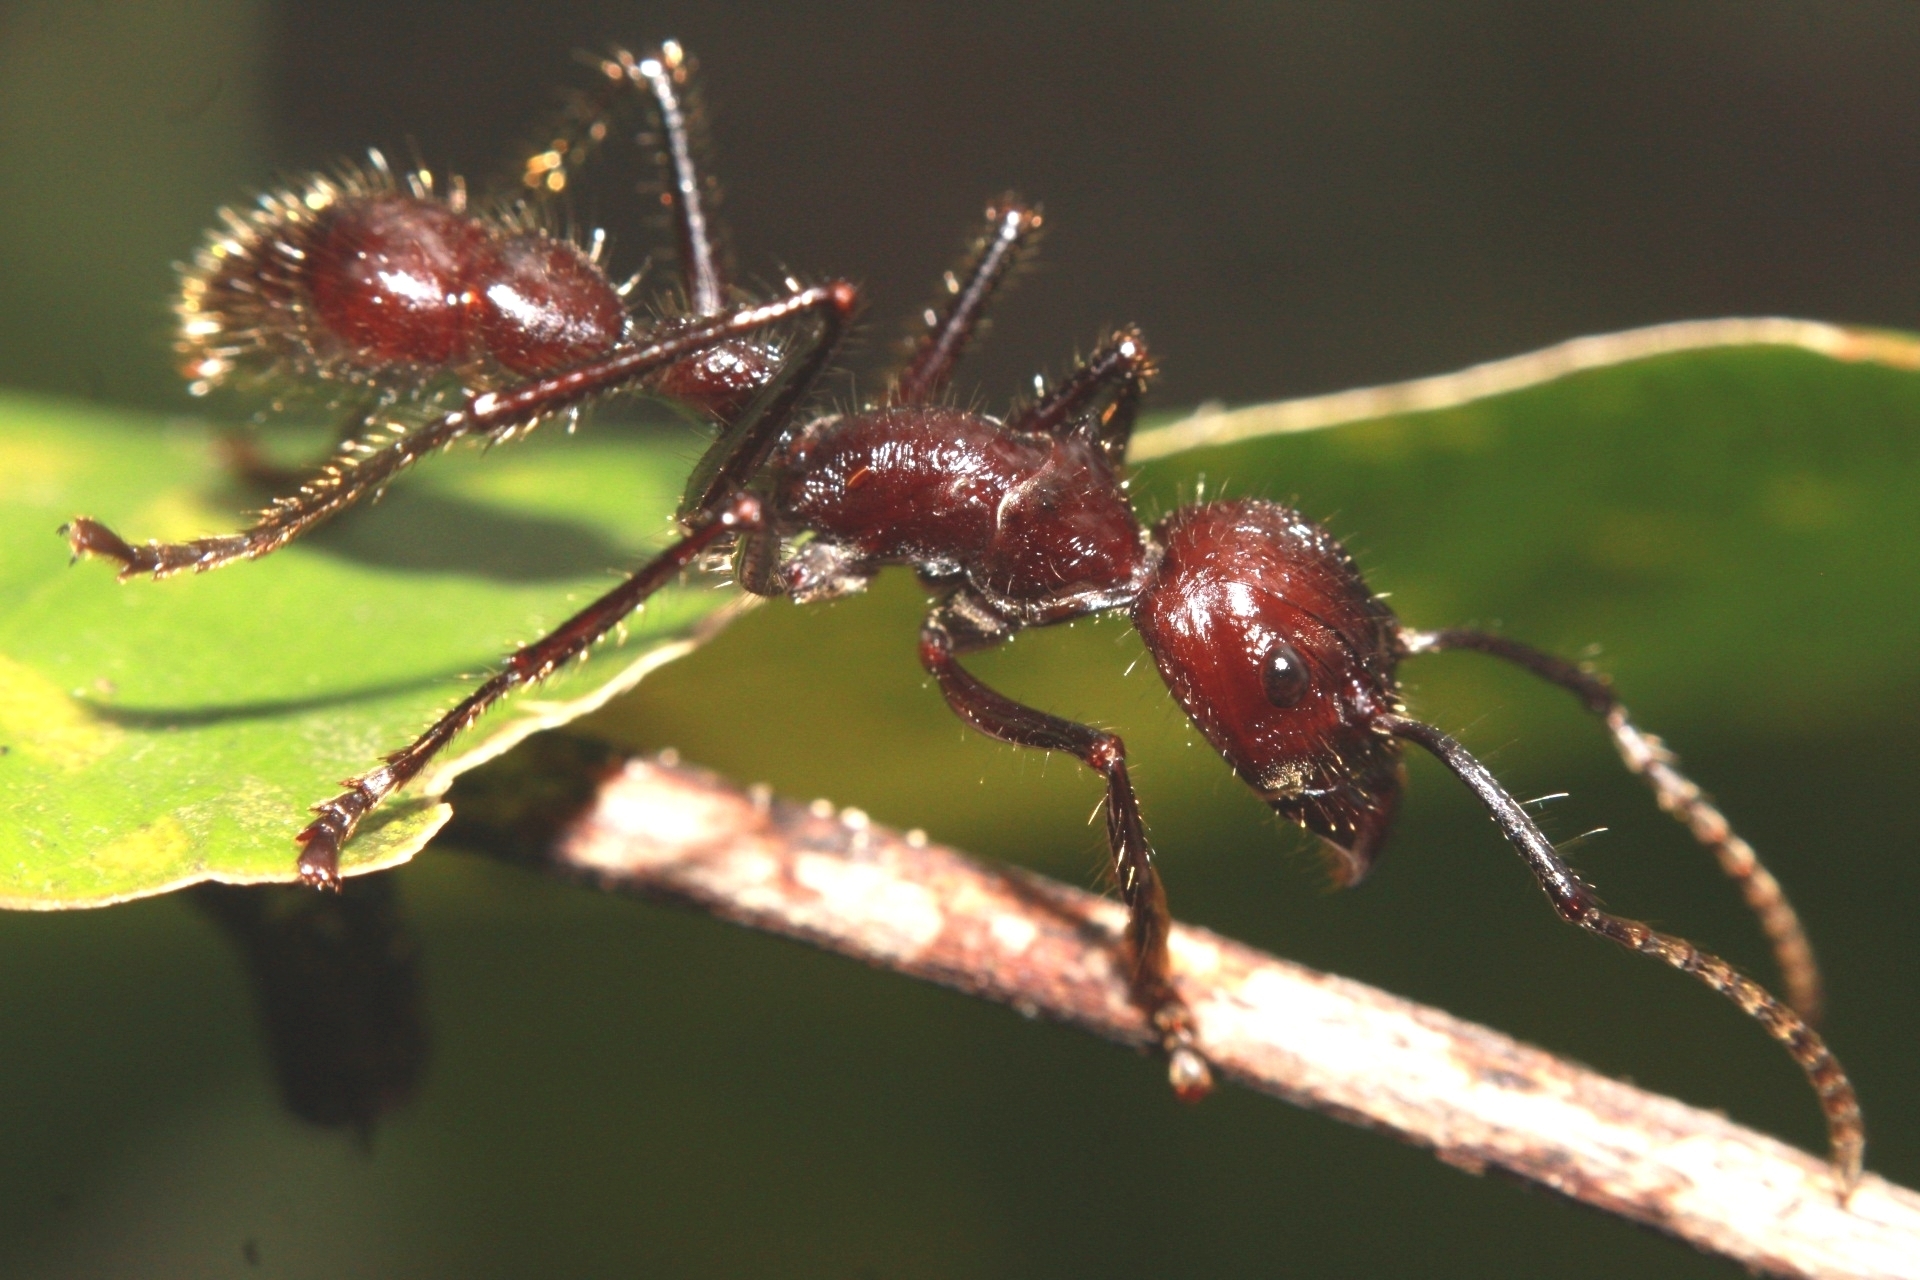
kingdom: Animalia
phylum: Arthropoda
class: Insecta
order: Hymenoptera
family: Formicidae
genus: Paraponera
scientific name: Paraponera clavata
